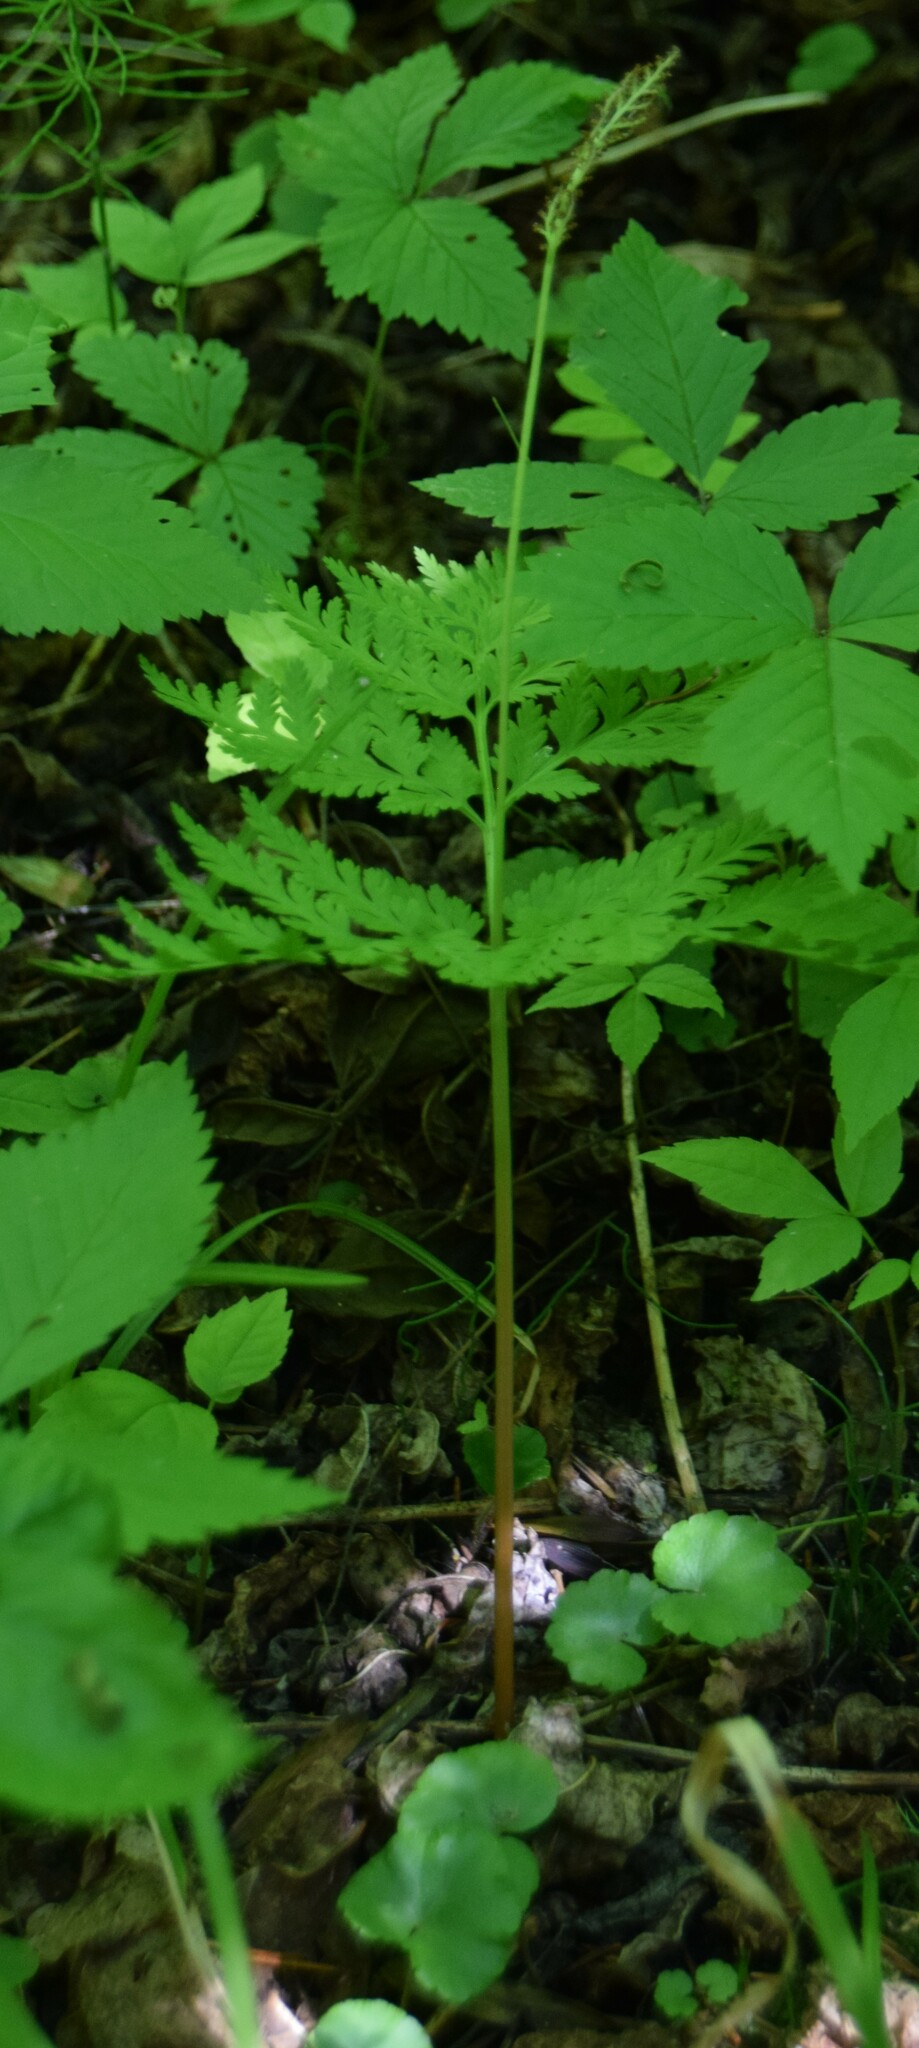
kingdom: Plantae
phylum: Tracheophyta
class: Polypodiopsida
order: Ophioglossales
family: Ophioglossaceae
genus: Botrypus
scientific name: Botrypus virginianus
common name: Common grapefern
